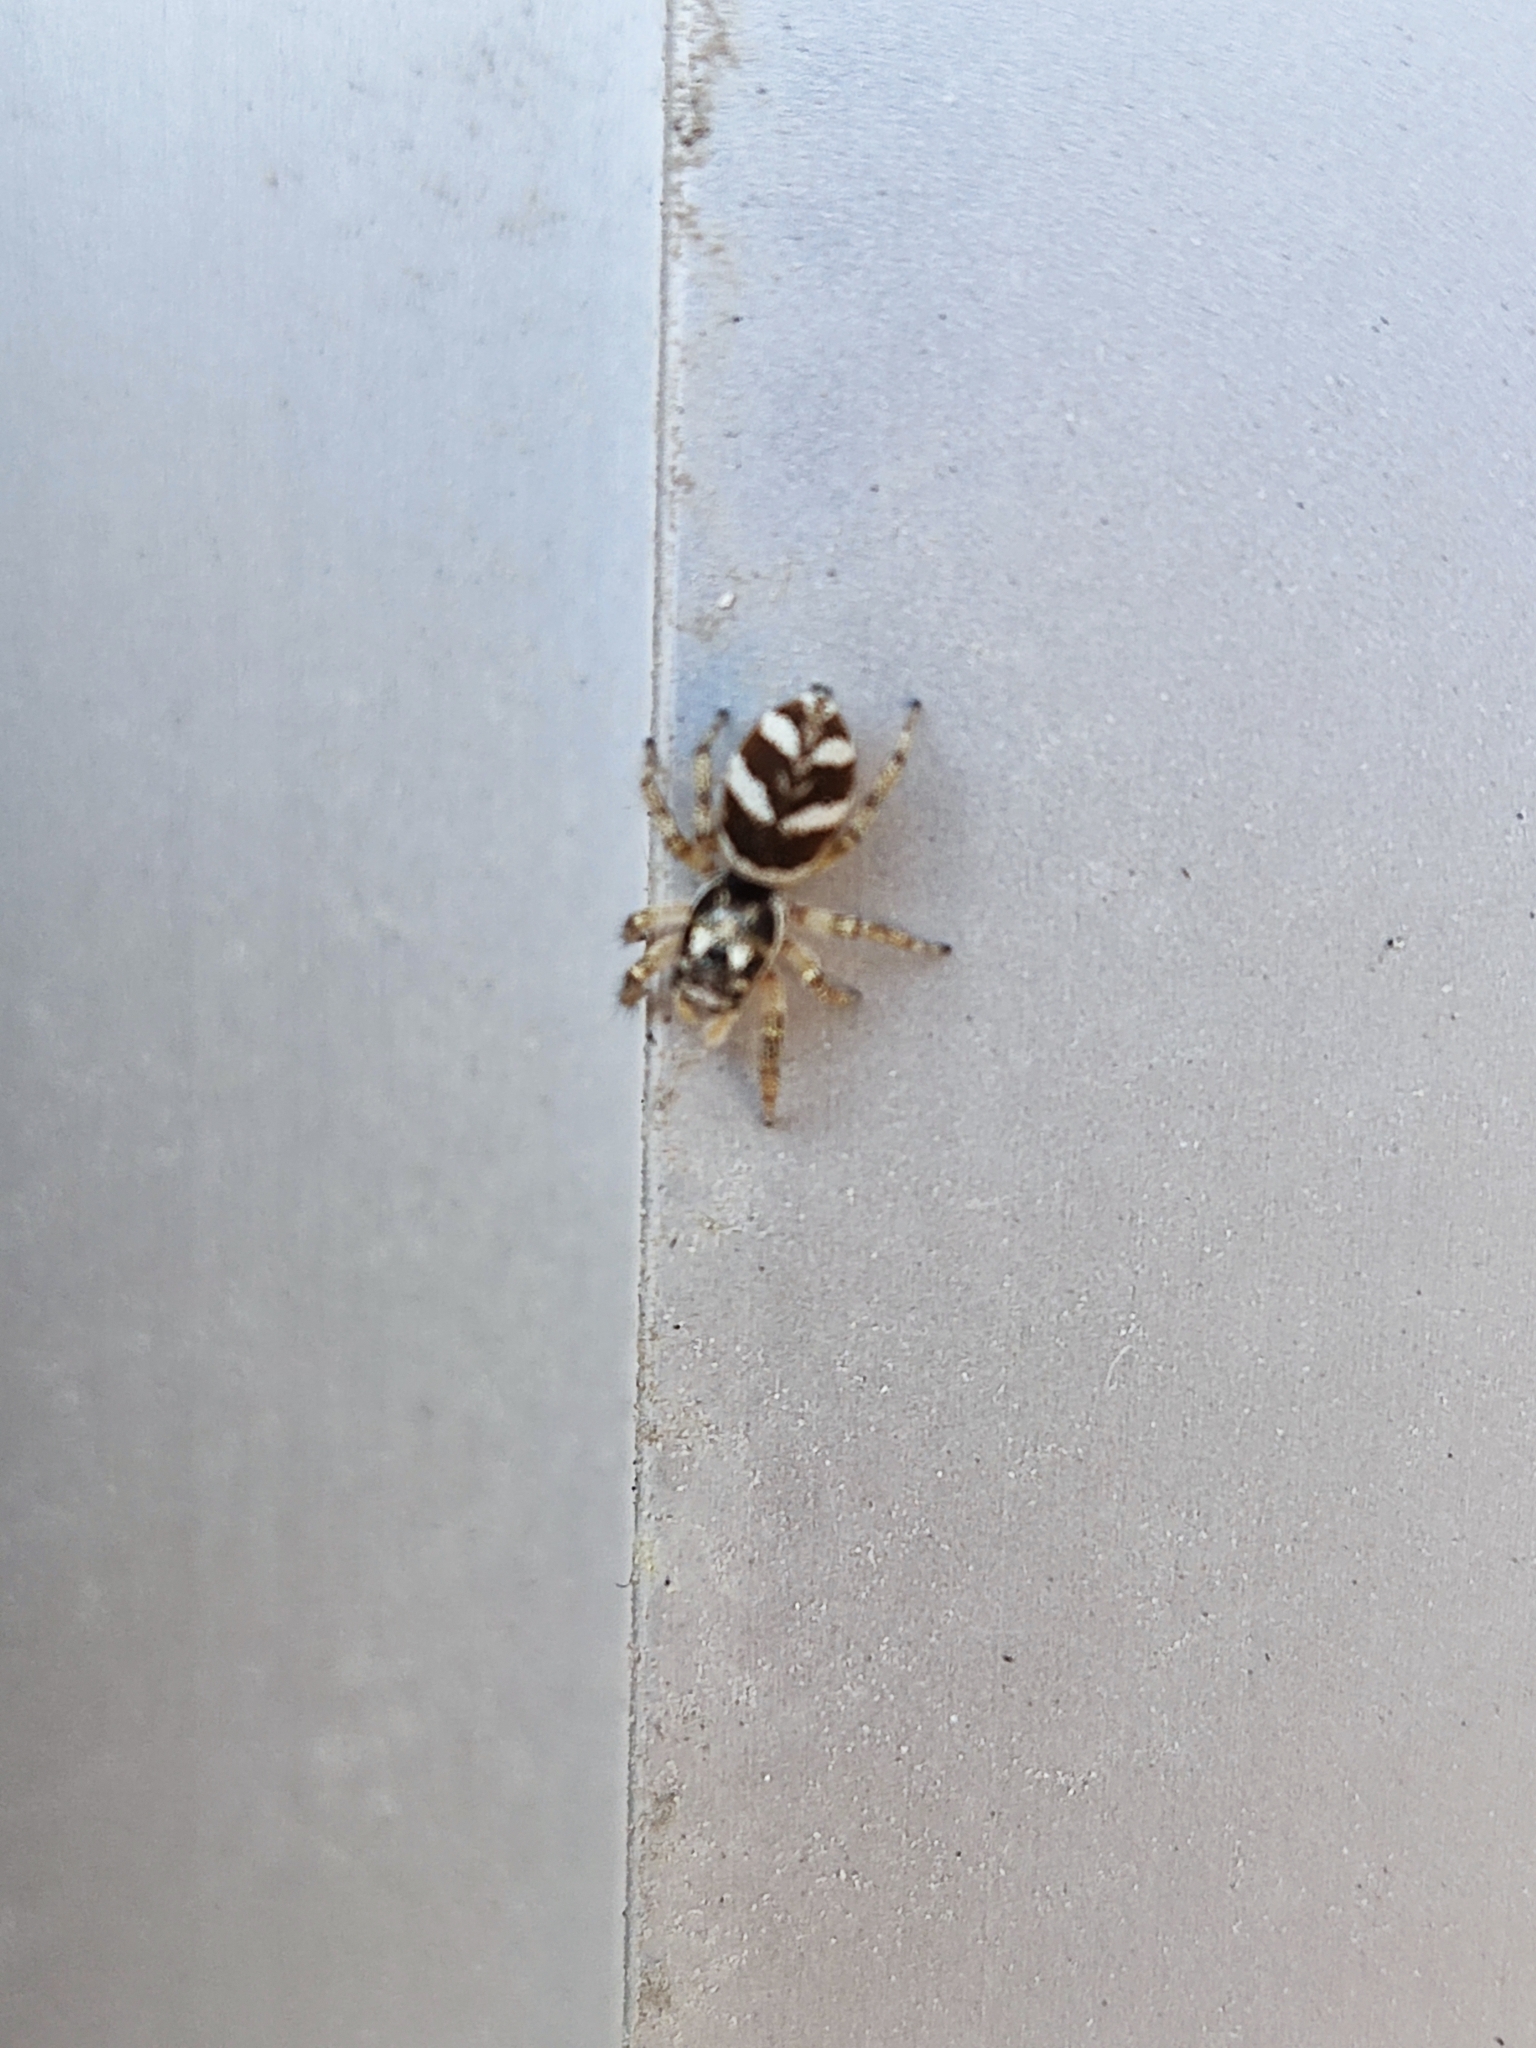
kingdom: Animalia
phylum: Arthropoda
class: Arachnida
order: Araneae
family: Salticidae
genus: Salticus
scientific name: Salticus scenicus
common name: Zebra jumper
